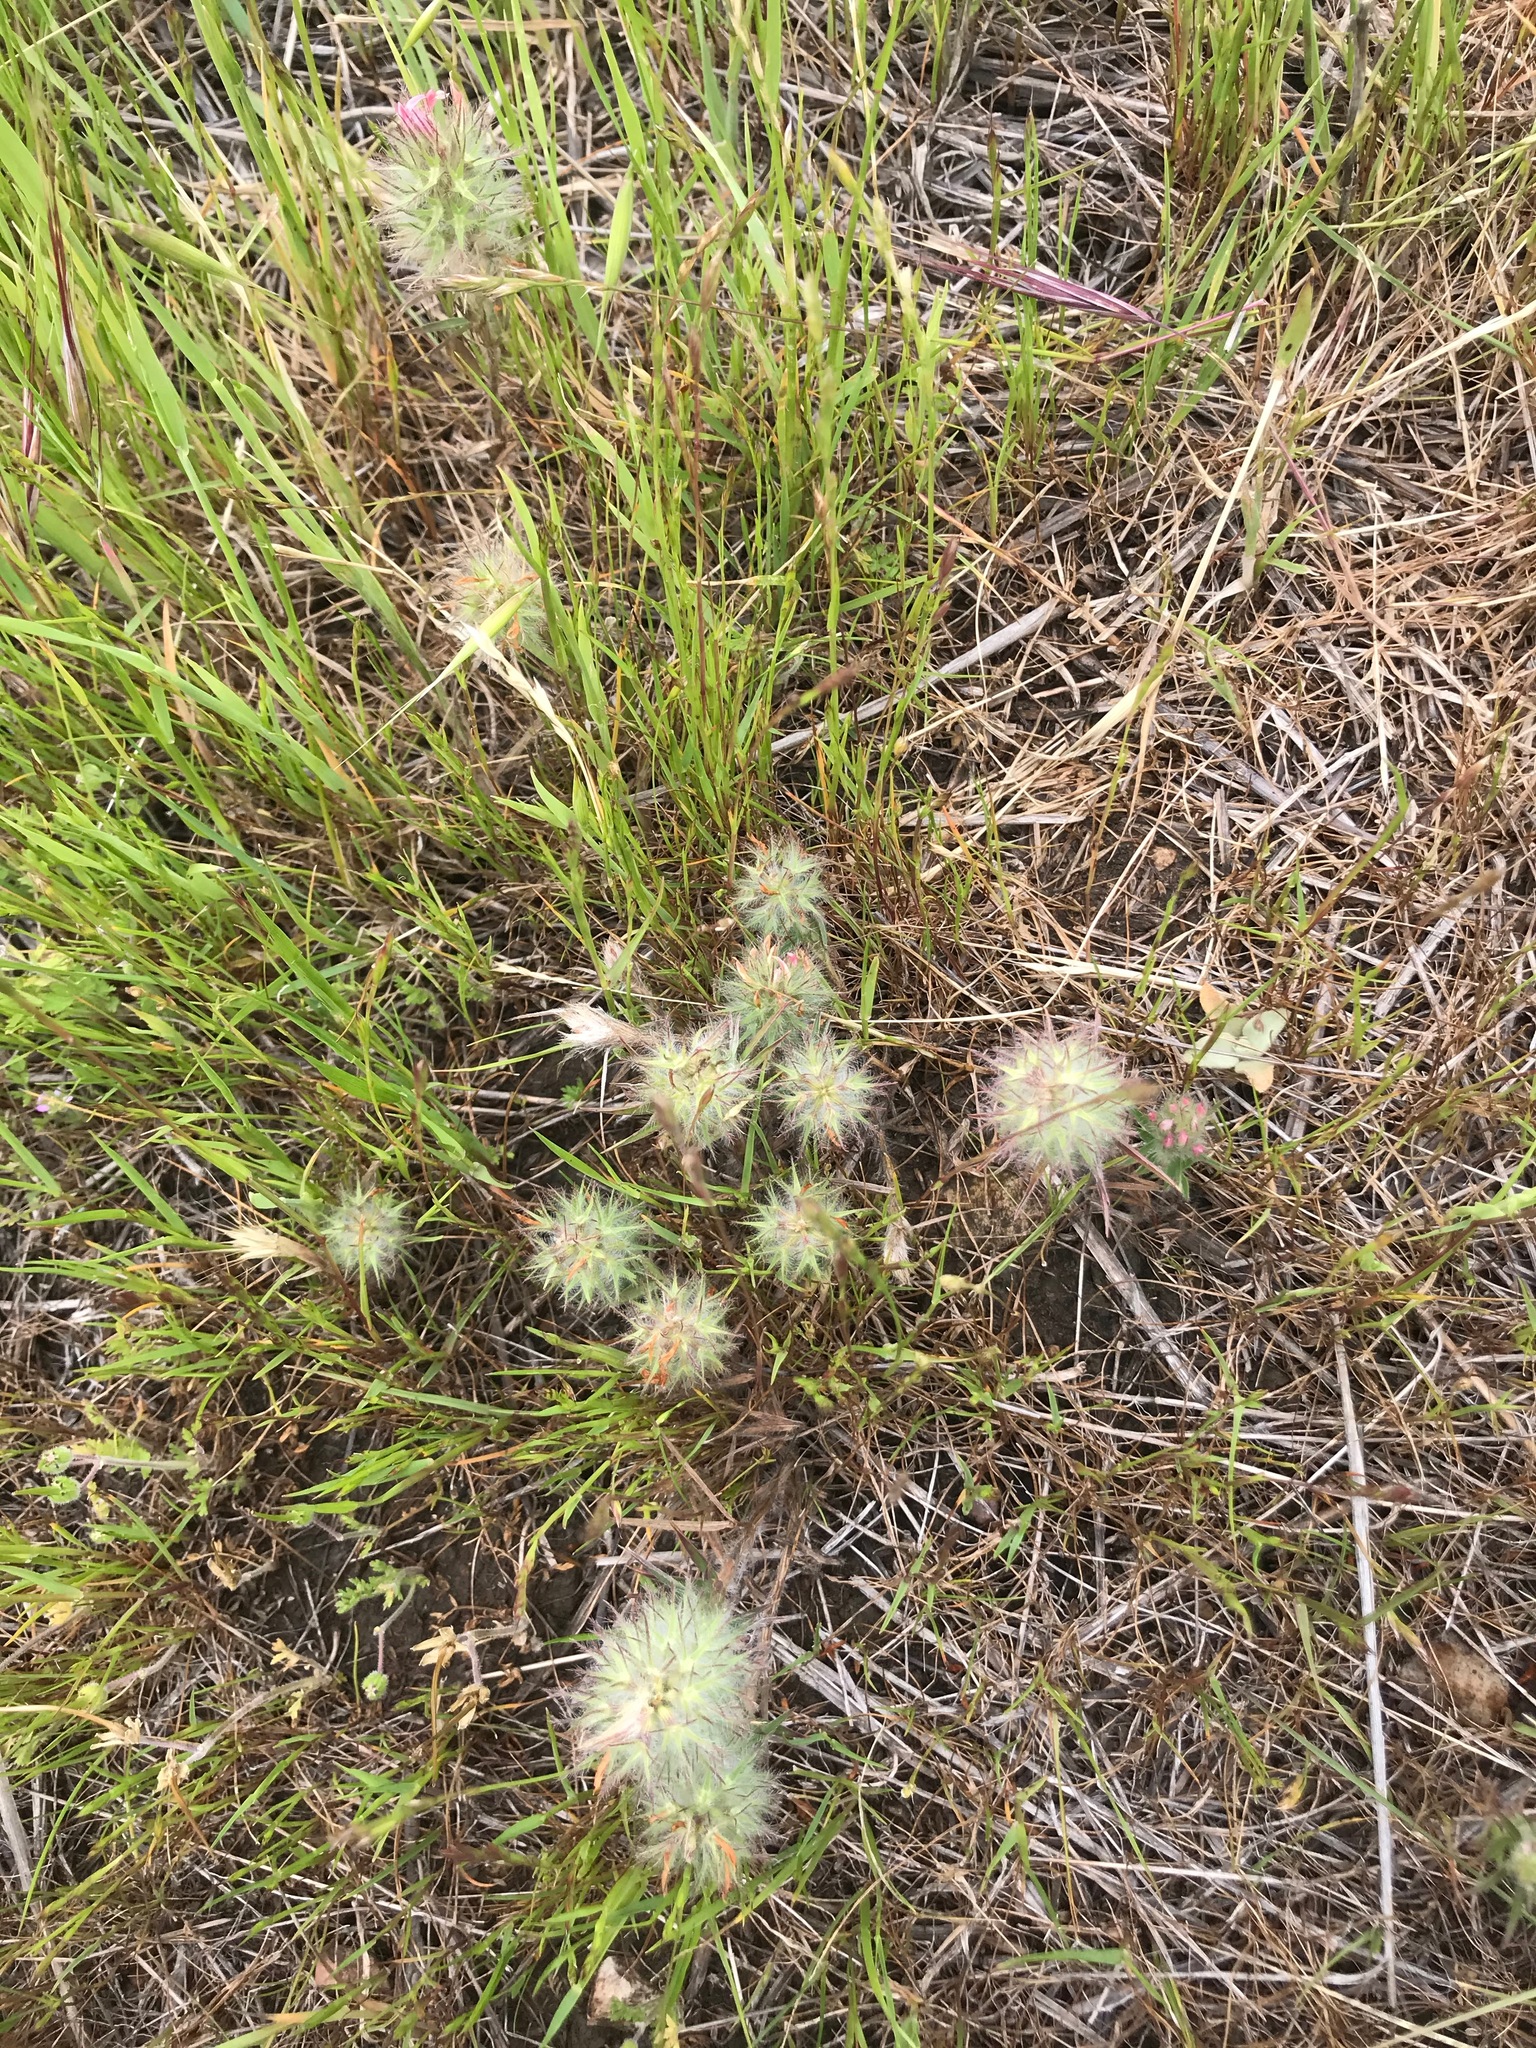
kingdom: Plantae
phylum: Tracheophyta
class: Magnoliopsida
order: Fabales
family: Fabaceae
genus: Trifolium
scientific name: Trifolium angustifolium
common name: Narrow clover
